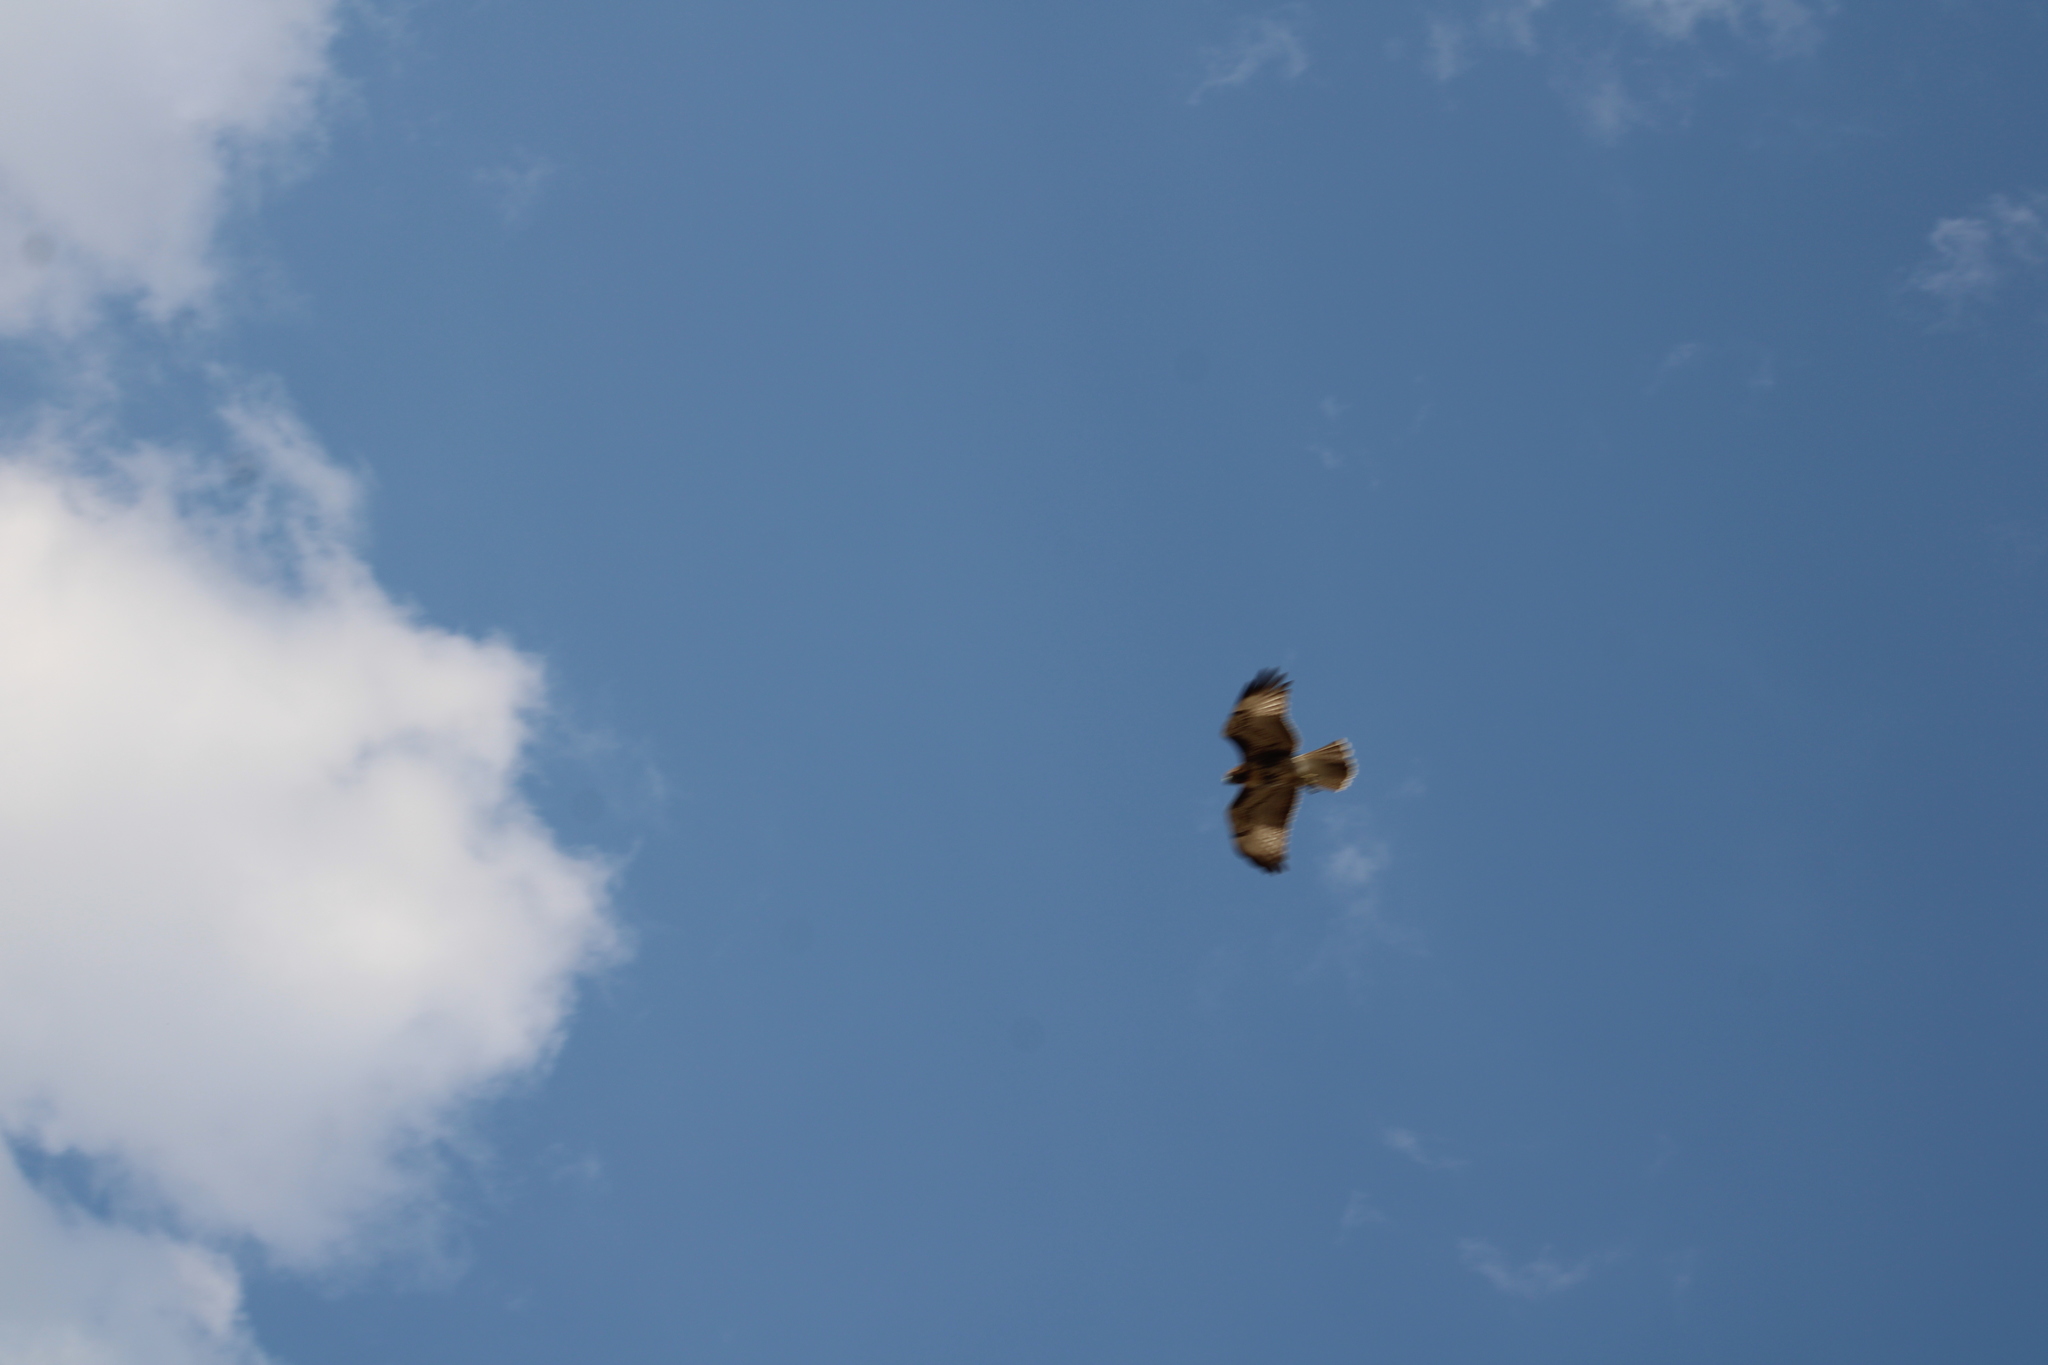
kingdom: Animalia
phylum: Chordata
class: Aves
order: Accipitriformes
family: Accipitridae
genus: Buteo
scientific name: Buteo jamaicensis
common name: Red-tailed hawk
